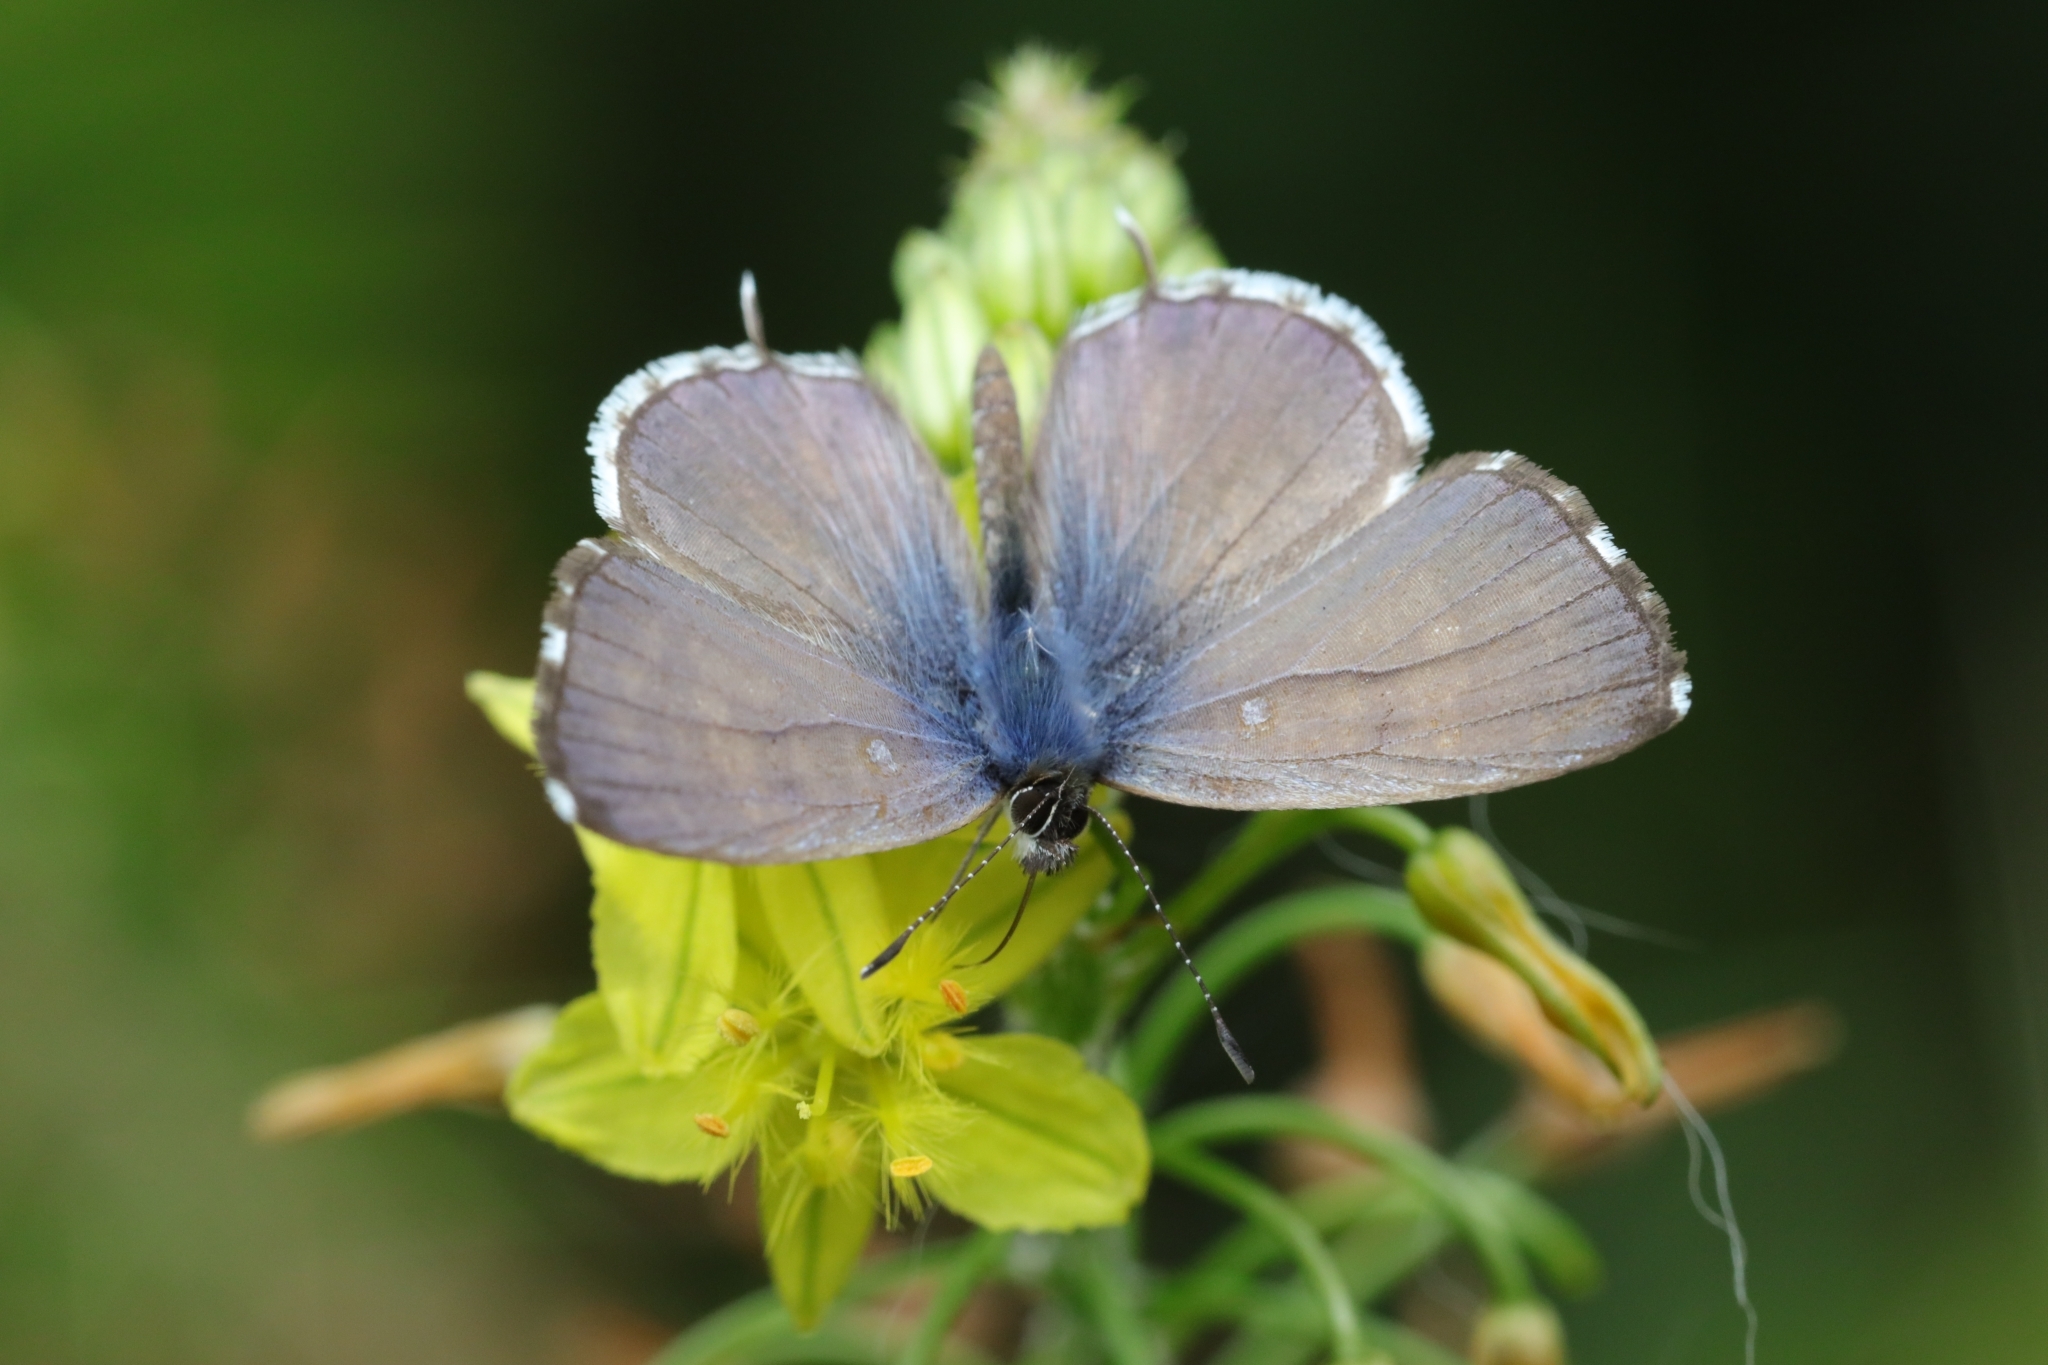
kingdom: Animalia
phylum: Arthropoda
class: Insecta
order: Lepidoptera
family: Lycaenidae
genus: Cacyreus
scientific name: Cacyreus lingeus
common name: Bush bronze
